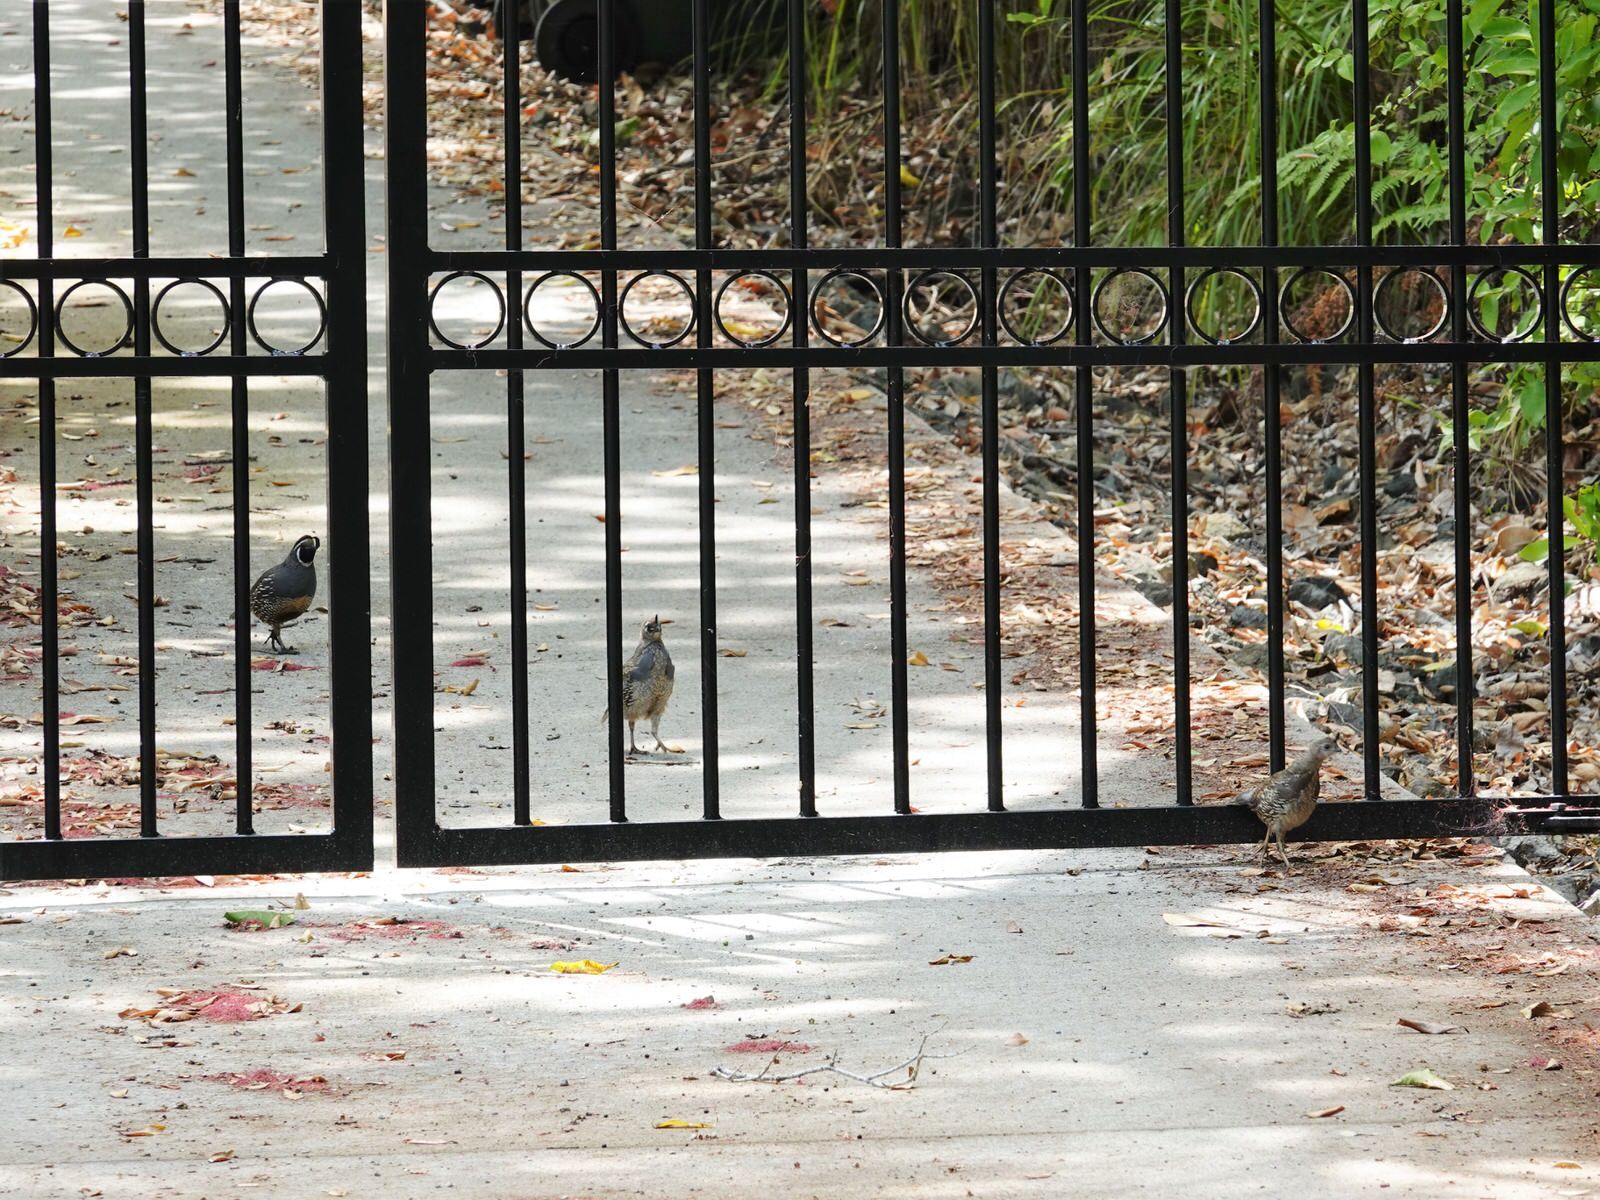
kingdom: Animalia
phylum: Chordata
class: Aves
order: Galliformes
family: Odontophoridae
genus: Callipepla
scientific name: Callipepla californica
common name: California quail
